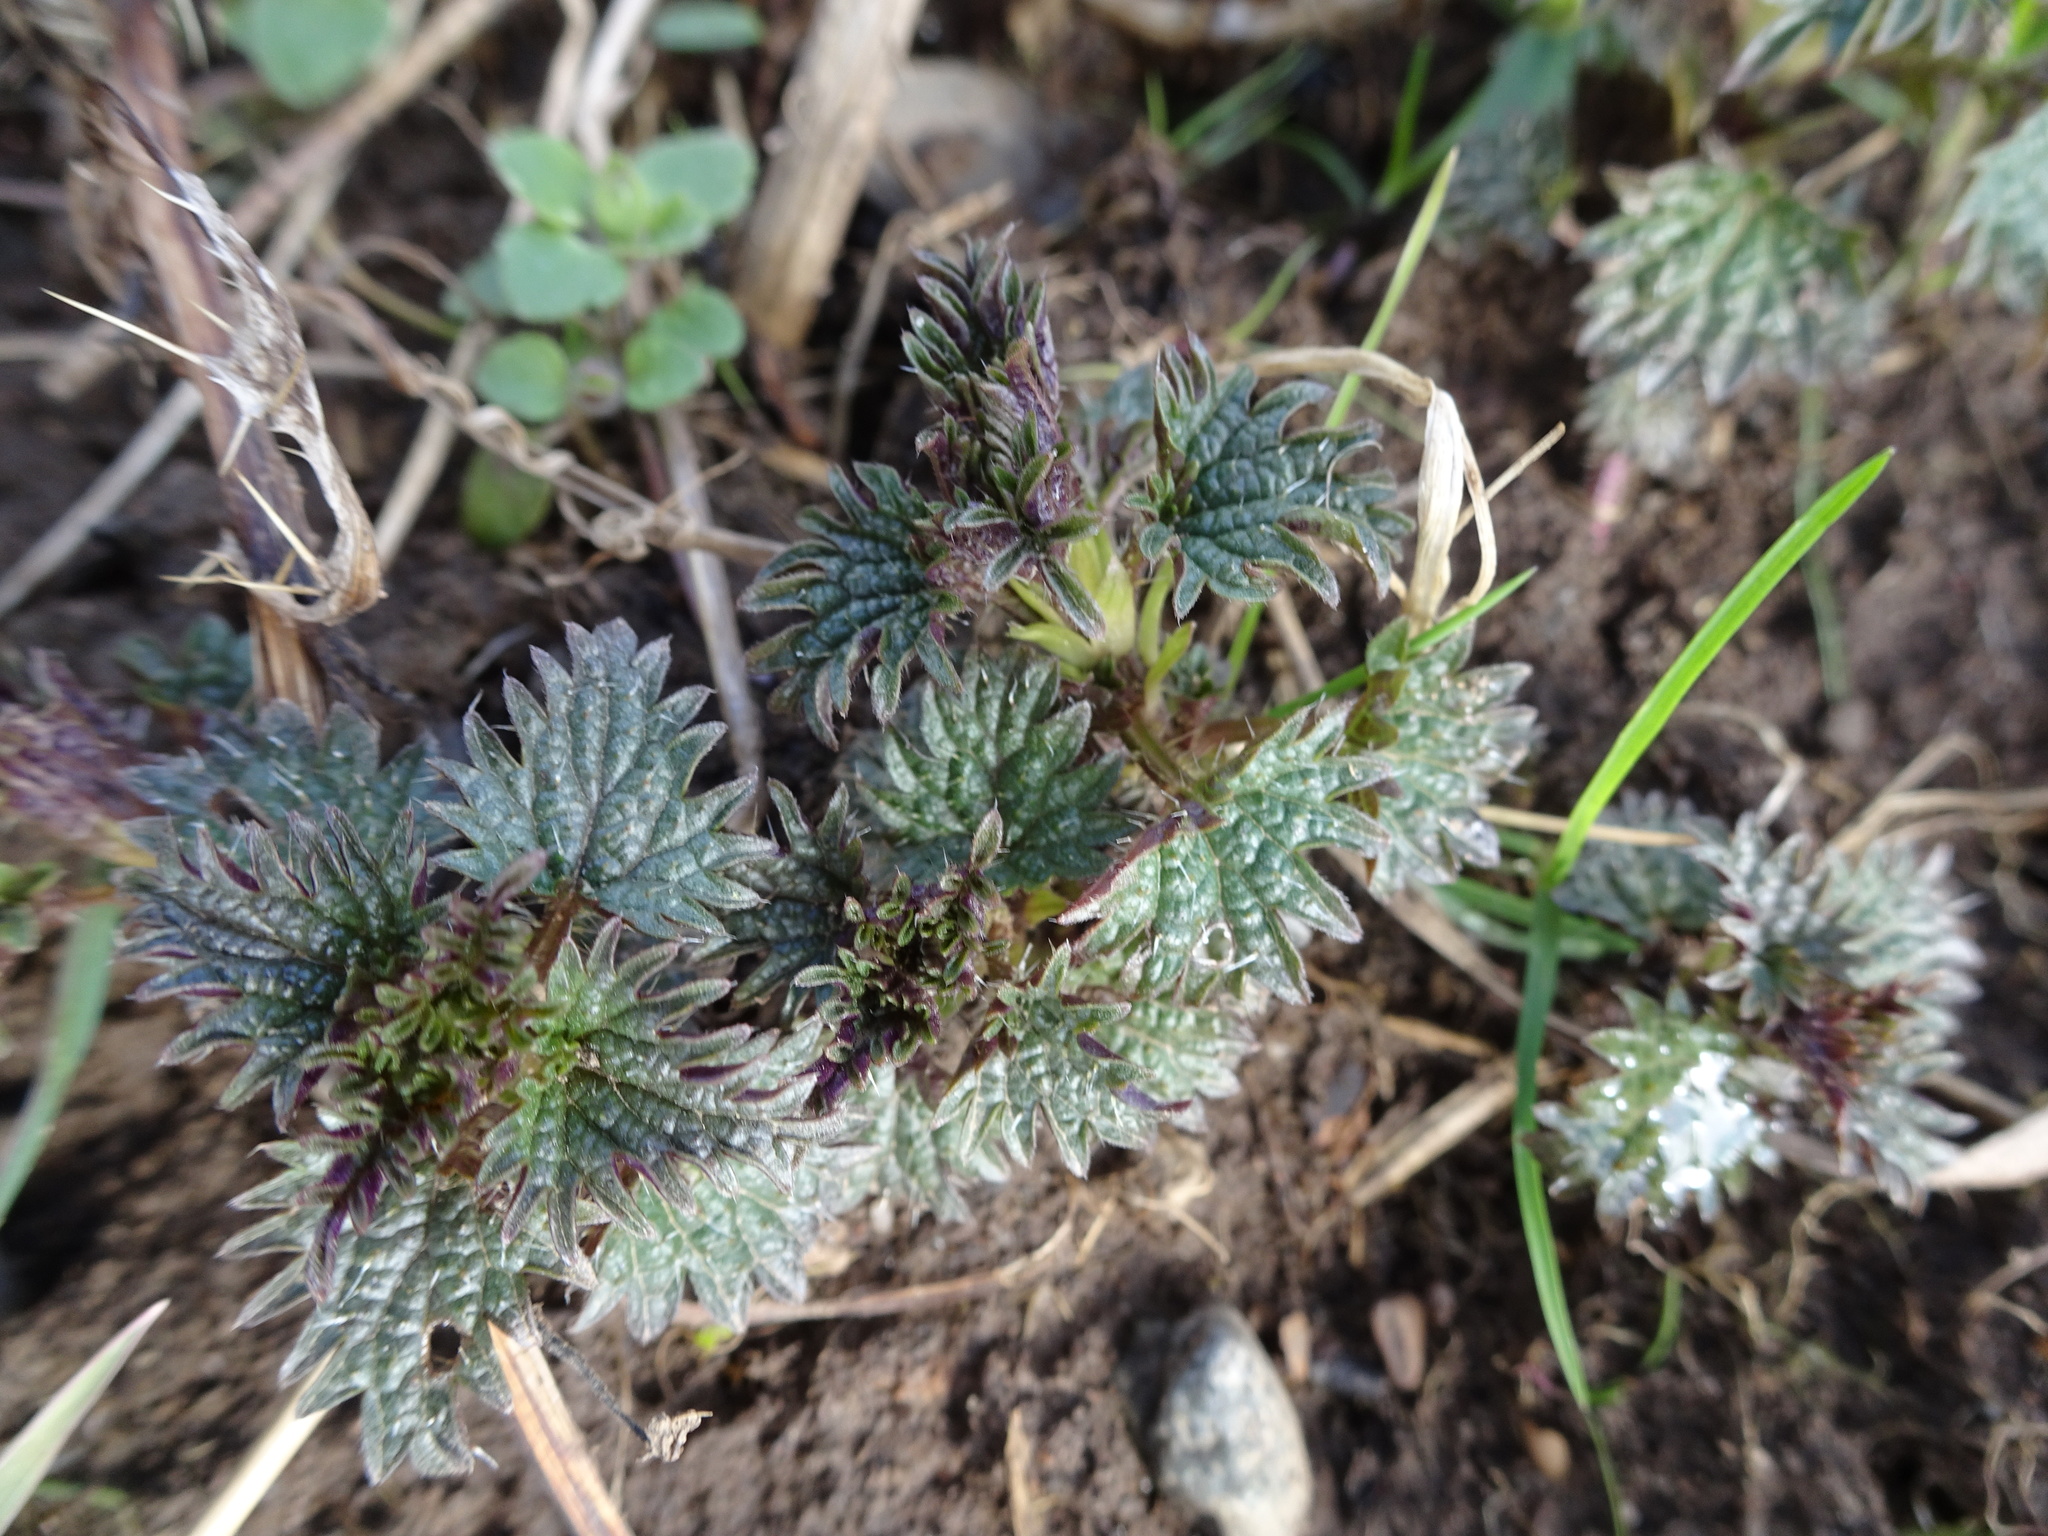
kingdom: Plantae
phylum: Tracheophyta
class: Magnoliopsida
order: Rosales
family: Urticaceae
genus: Urtica
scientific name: Urtica dioica
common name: Common nettle
